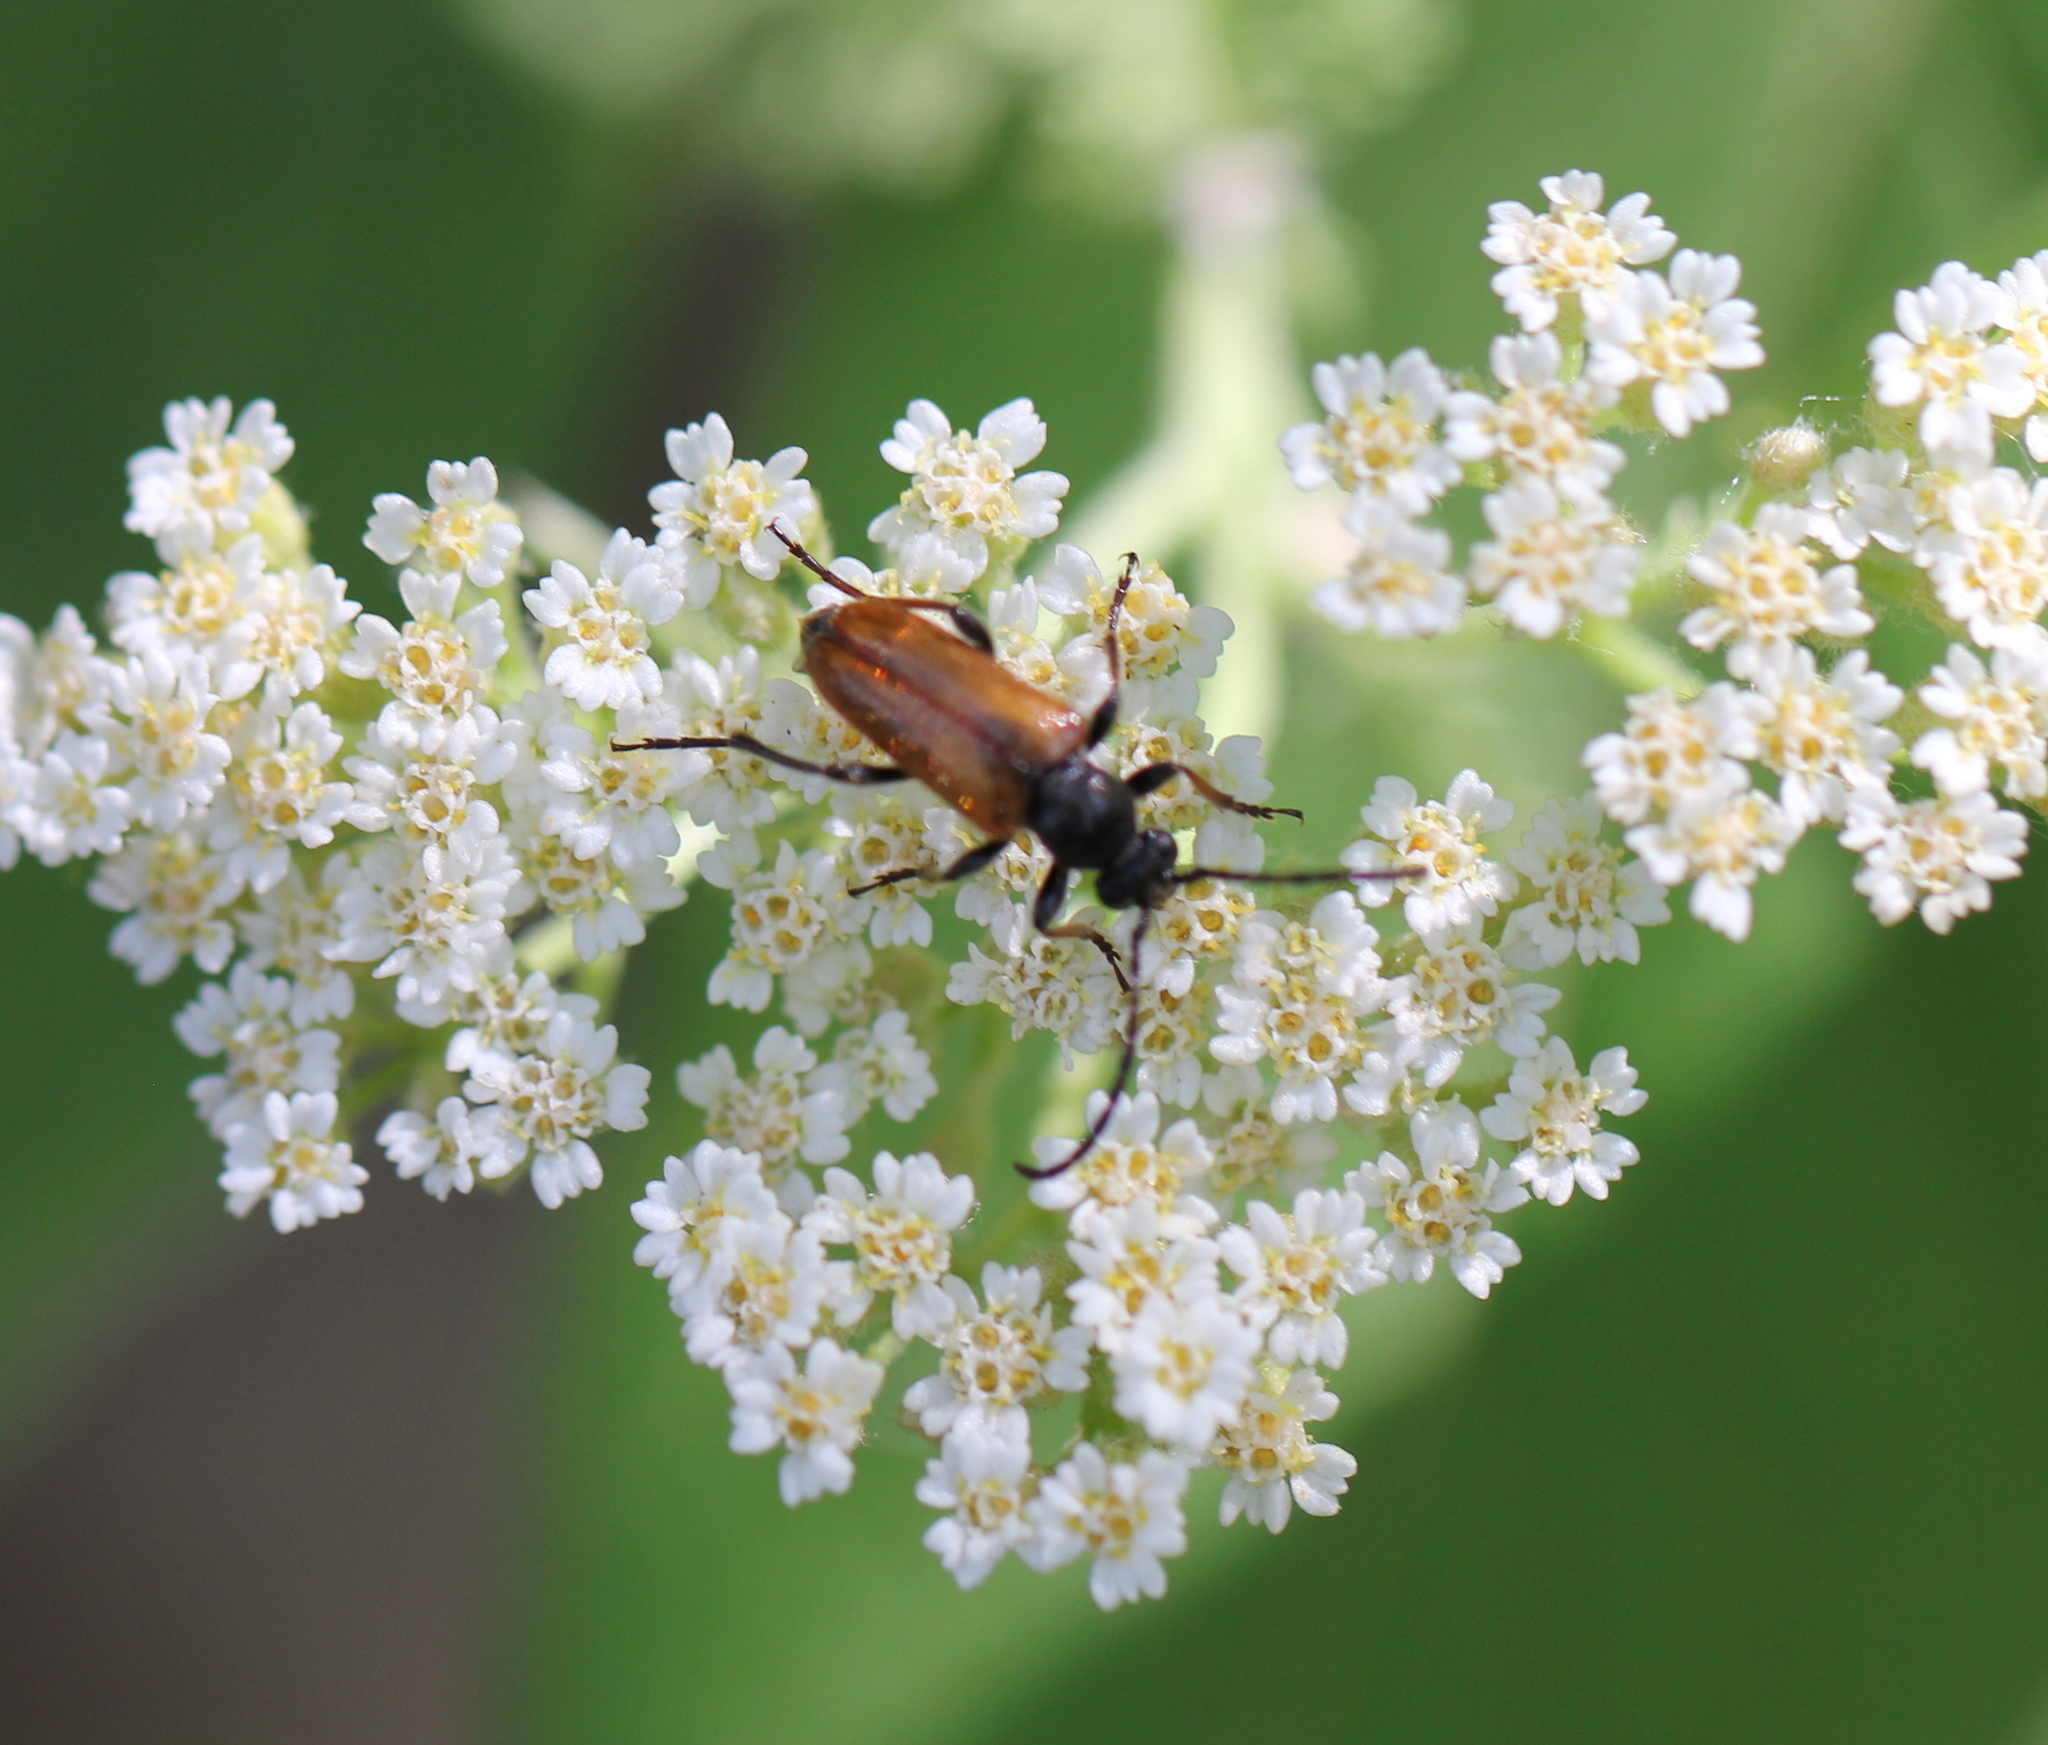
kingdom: Animalia
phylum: Arthropoda
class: Insecta
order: Coleoptera
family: Cerambycidae
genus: Pseudovadonia
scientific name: Pseudovadonia livida
